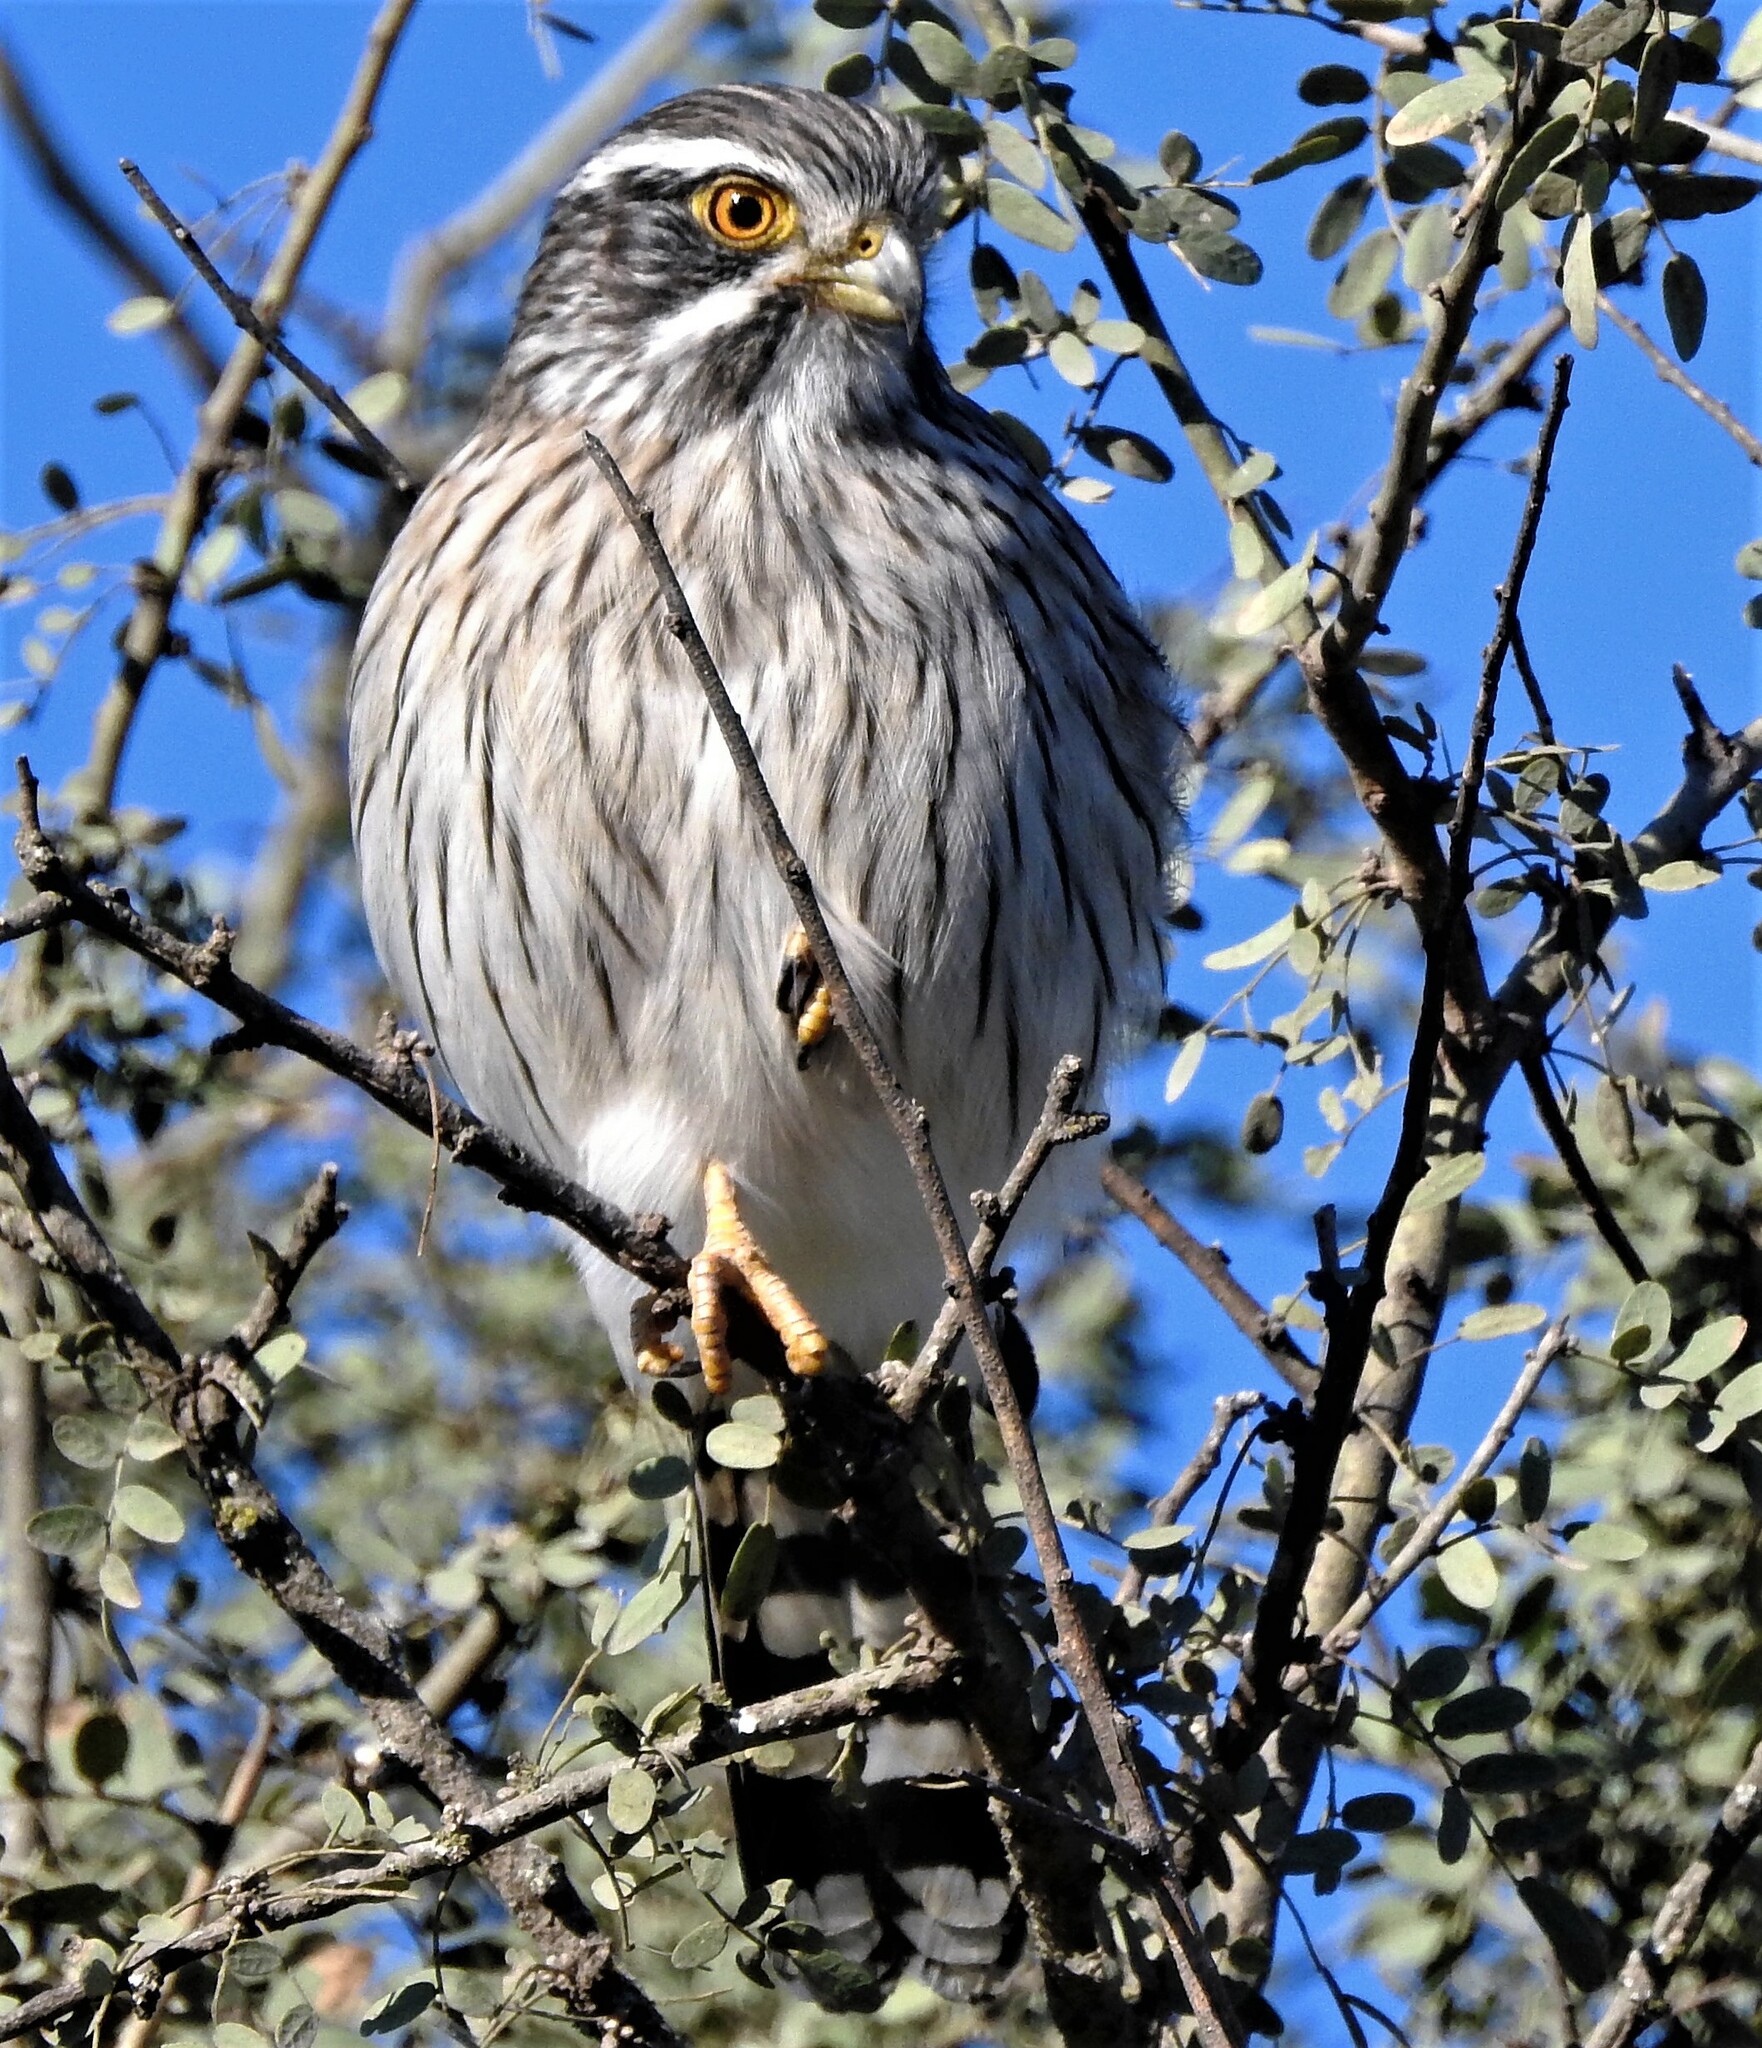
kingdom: Animalia
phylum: Chordata
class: Aves
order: Falconiformes
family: Falconidae
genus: Spiziapteryx
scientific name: Spiziapteryx circumcincta
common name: Spot-winged falconet
